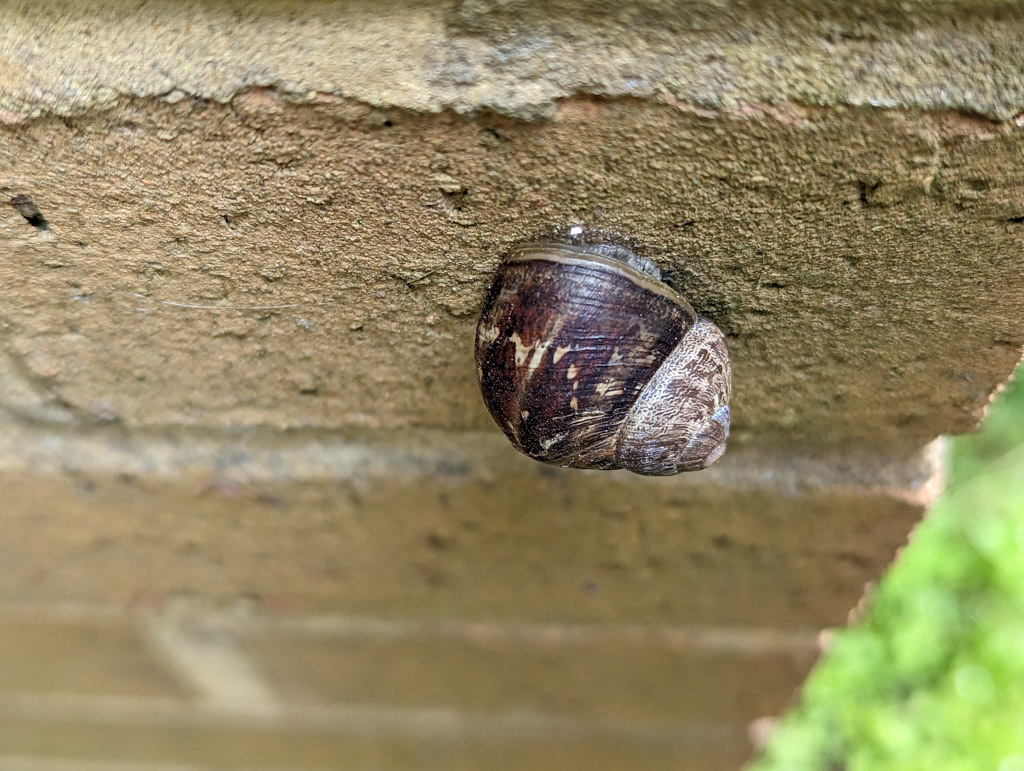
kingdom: Animalia
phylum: Mollusca
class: Gastropoda
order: Stylommatophora
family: Helicidae
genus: Cornu
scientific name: Cornu aspersum
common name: Brown garden snail
